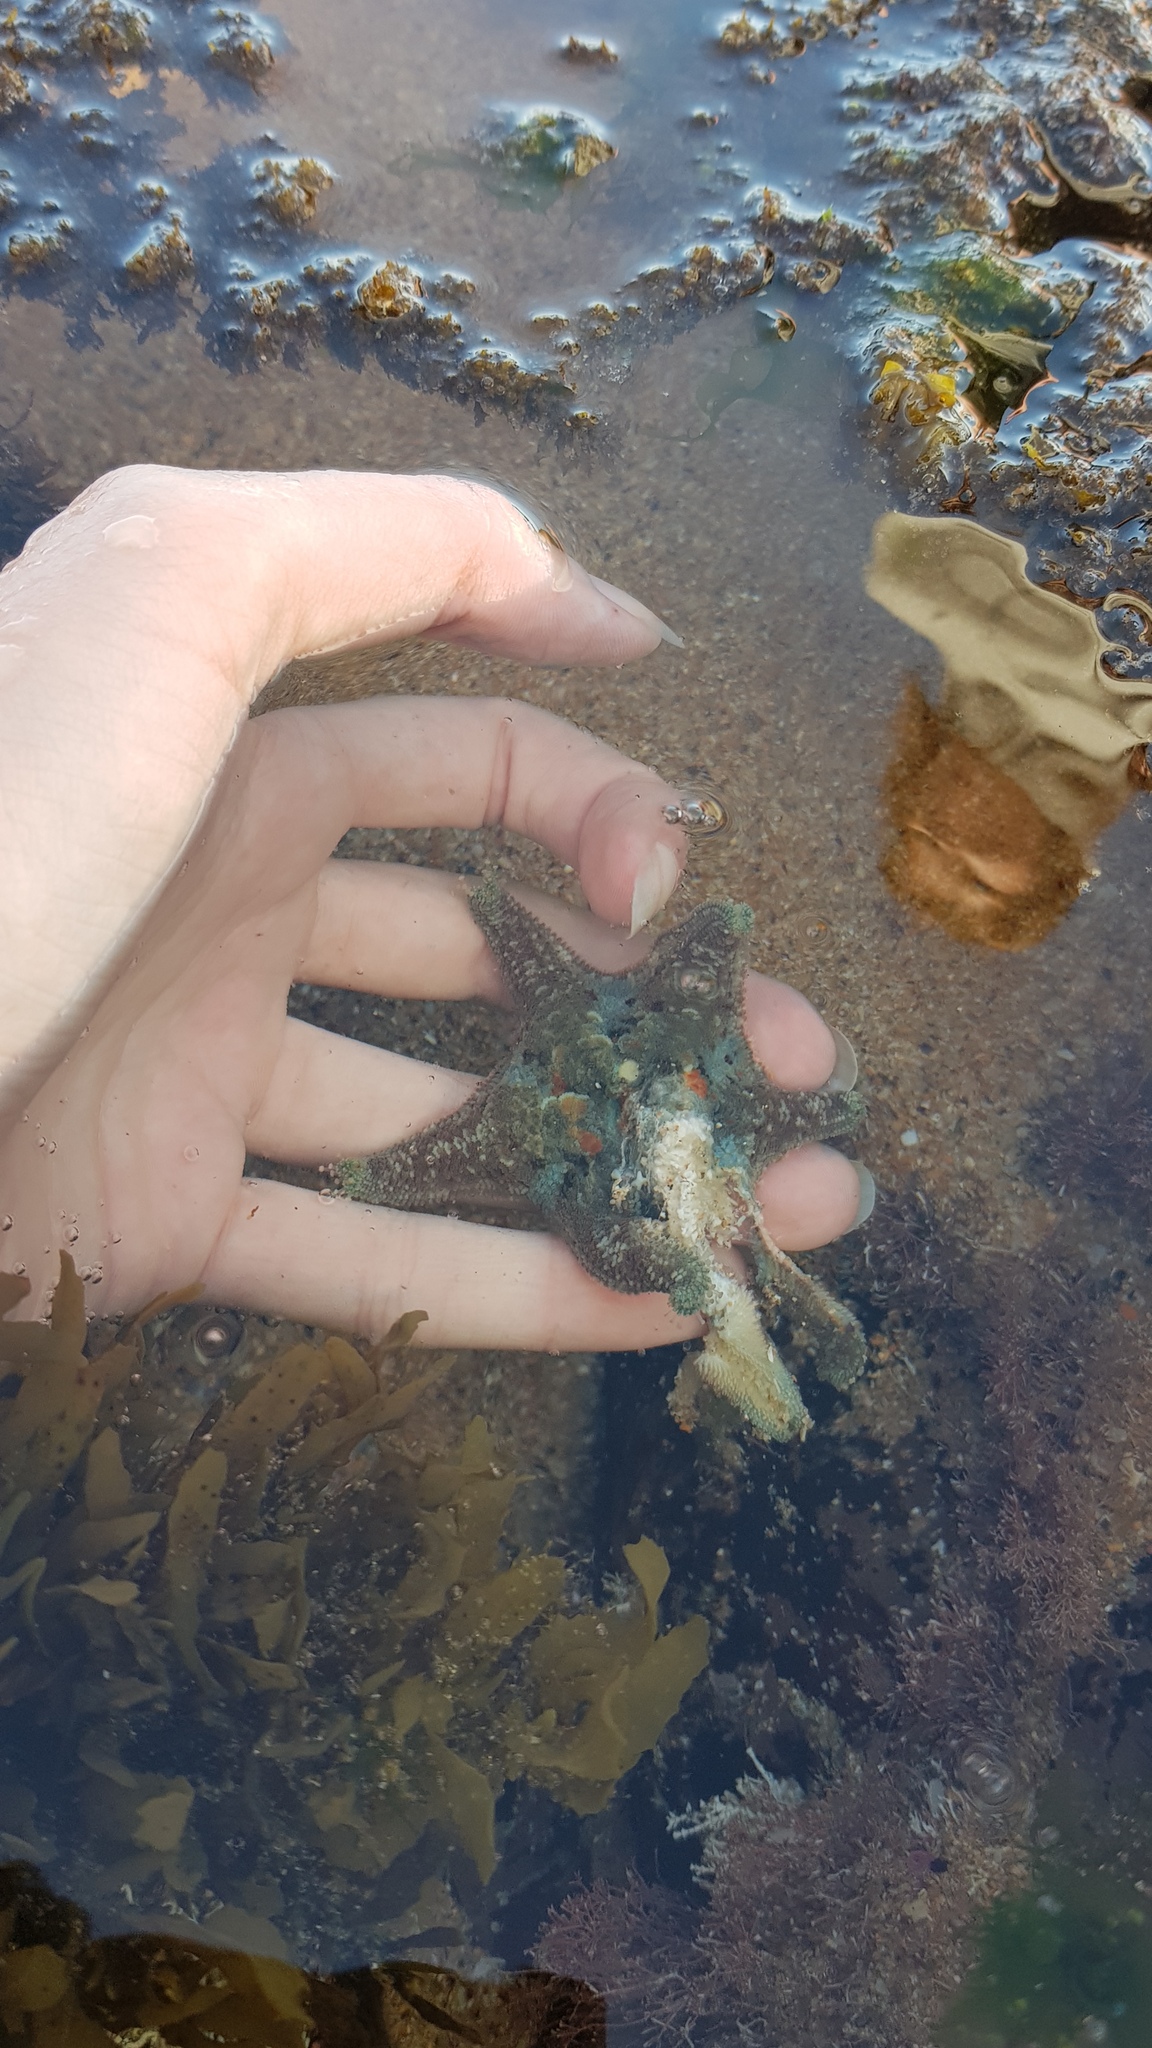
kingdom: Animalia
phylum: Echinodermata
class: Asteroidea
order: Valvatida
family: Asterinidae
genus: Meridiastra
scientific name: Meridiastra calcar
